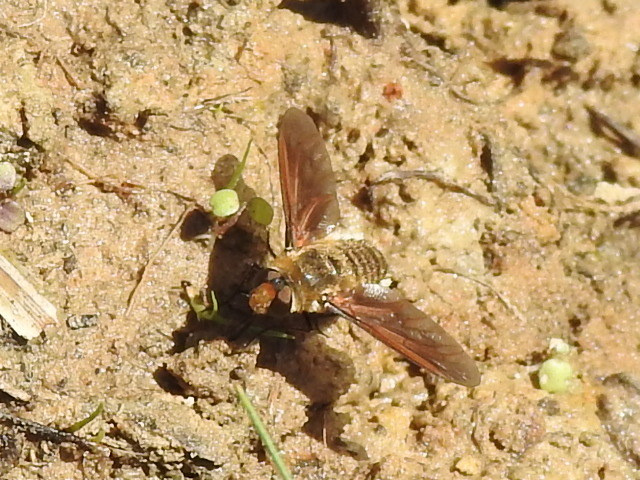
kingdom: Animalia
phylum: Arthropoda
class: Insecta
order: Diptera
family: Bombyliidae
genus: Poecilanthrax
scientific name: Poecilanthrax lucifer
